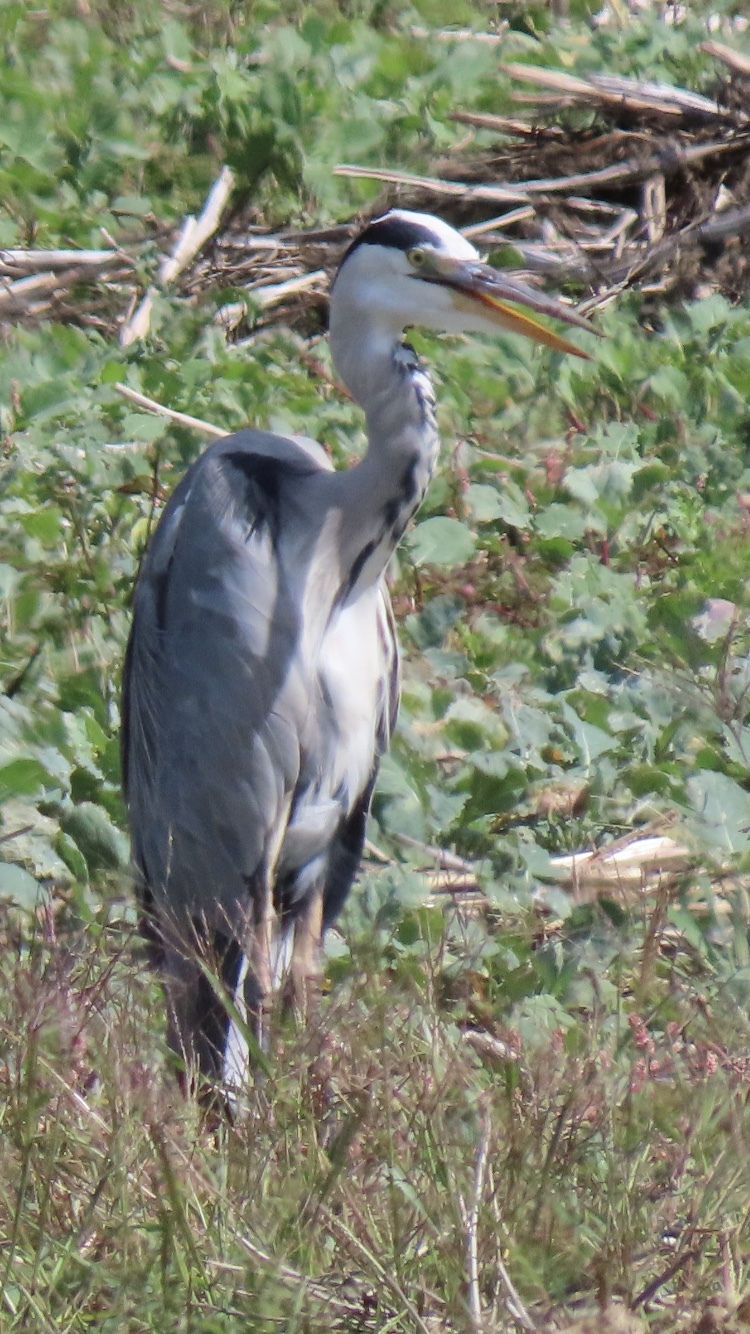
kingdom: Animalia
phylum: Chordata
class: Aves
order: Pelecaniformes
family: Ardeidae
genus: Ardea
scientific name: Ardea cinerea
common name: Grey heron
